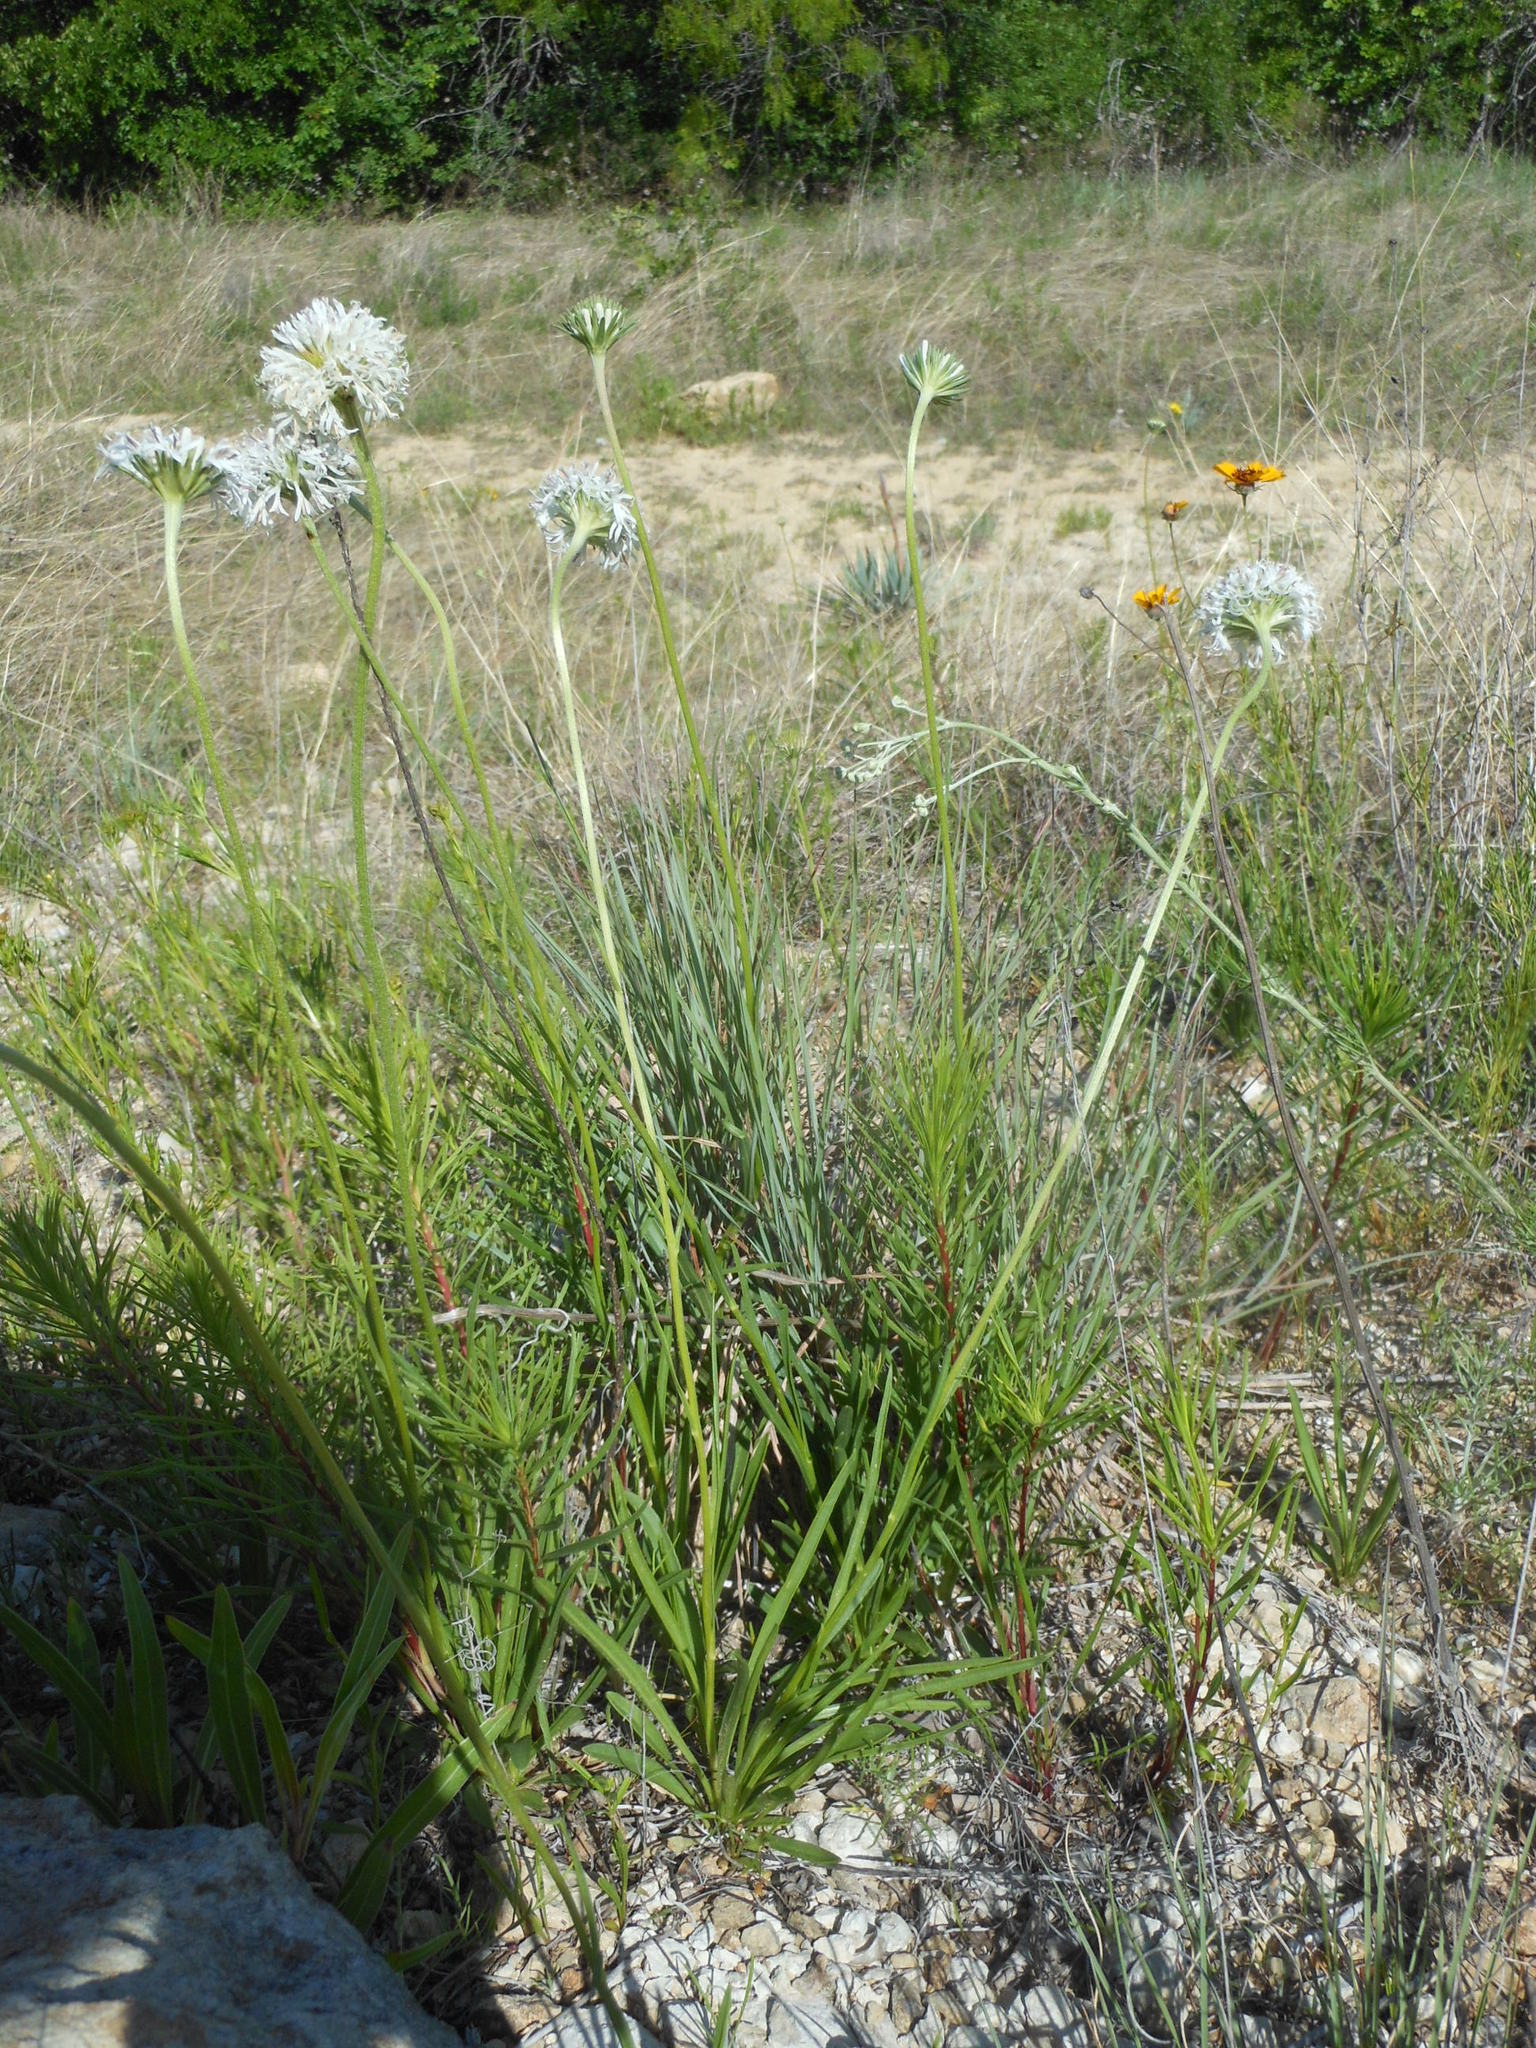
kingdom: Plantae
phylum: Tracheophyta
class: Magnoliopsida
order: Asterales
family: Asteraceae
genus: Marshallia
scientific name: Marshallia caespitosa
